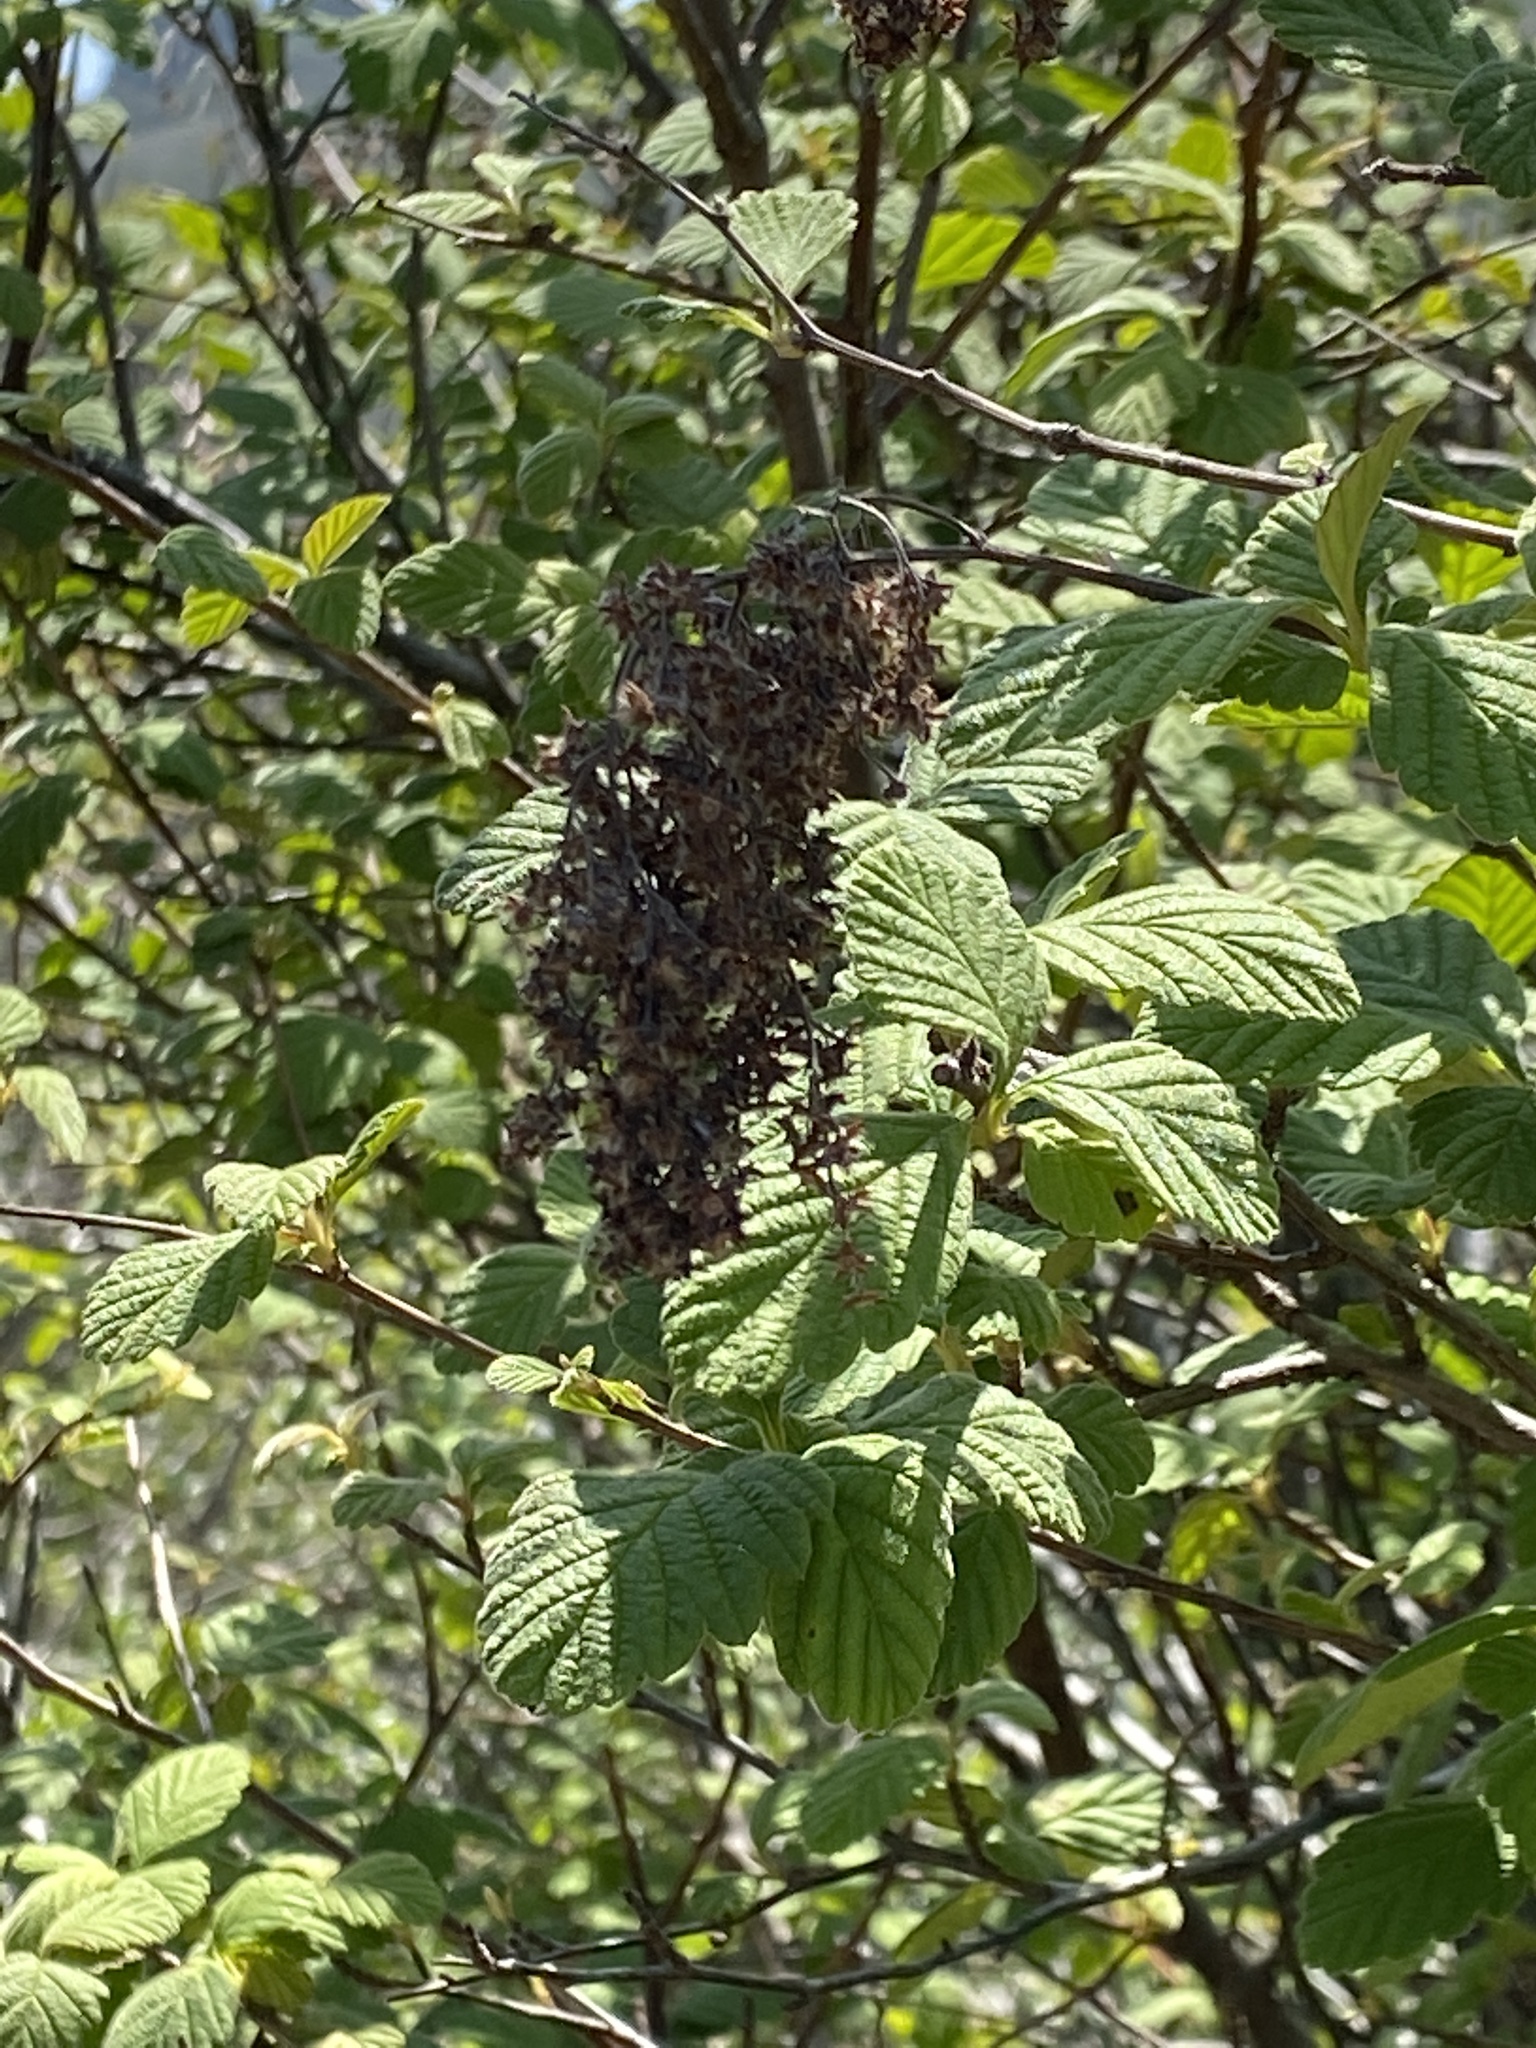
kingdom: Plantae
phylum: Tracheophyta
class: Magnoliopsida
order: Rosales
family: Rosaceae
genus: Holodiscus
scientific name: Holodiscus discolor
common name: Oceanspray
